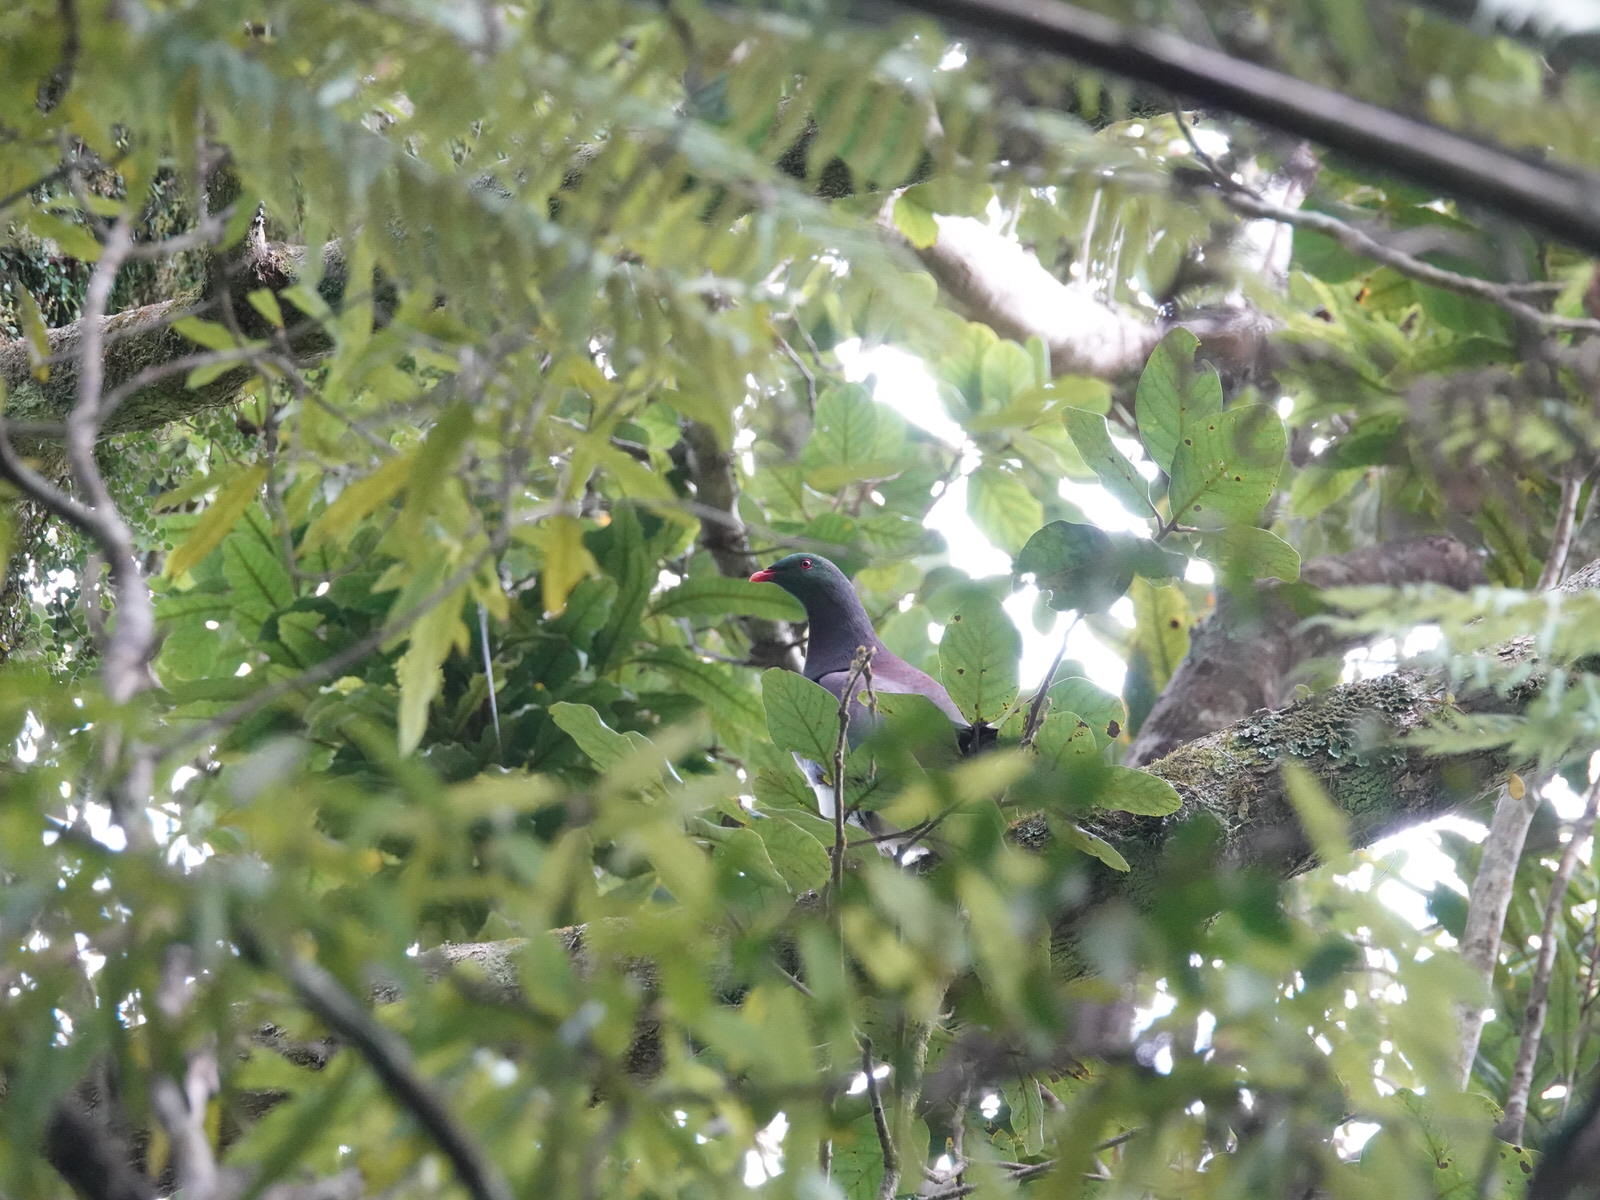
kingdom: Animalia
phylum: Chordata
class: Aves
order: Columbiformes
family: Columbidae
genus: Hemiphaga
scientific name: Hemiphaga novaeseelandiae
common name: New zealand pigeon
